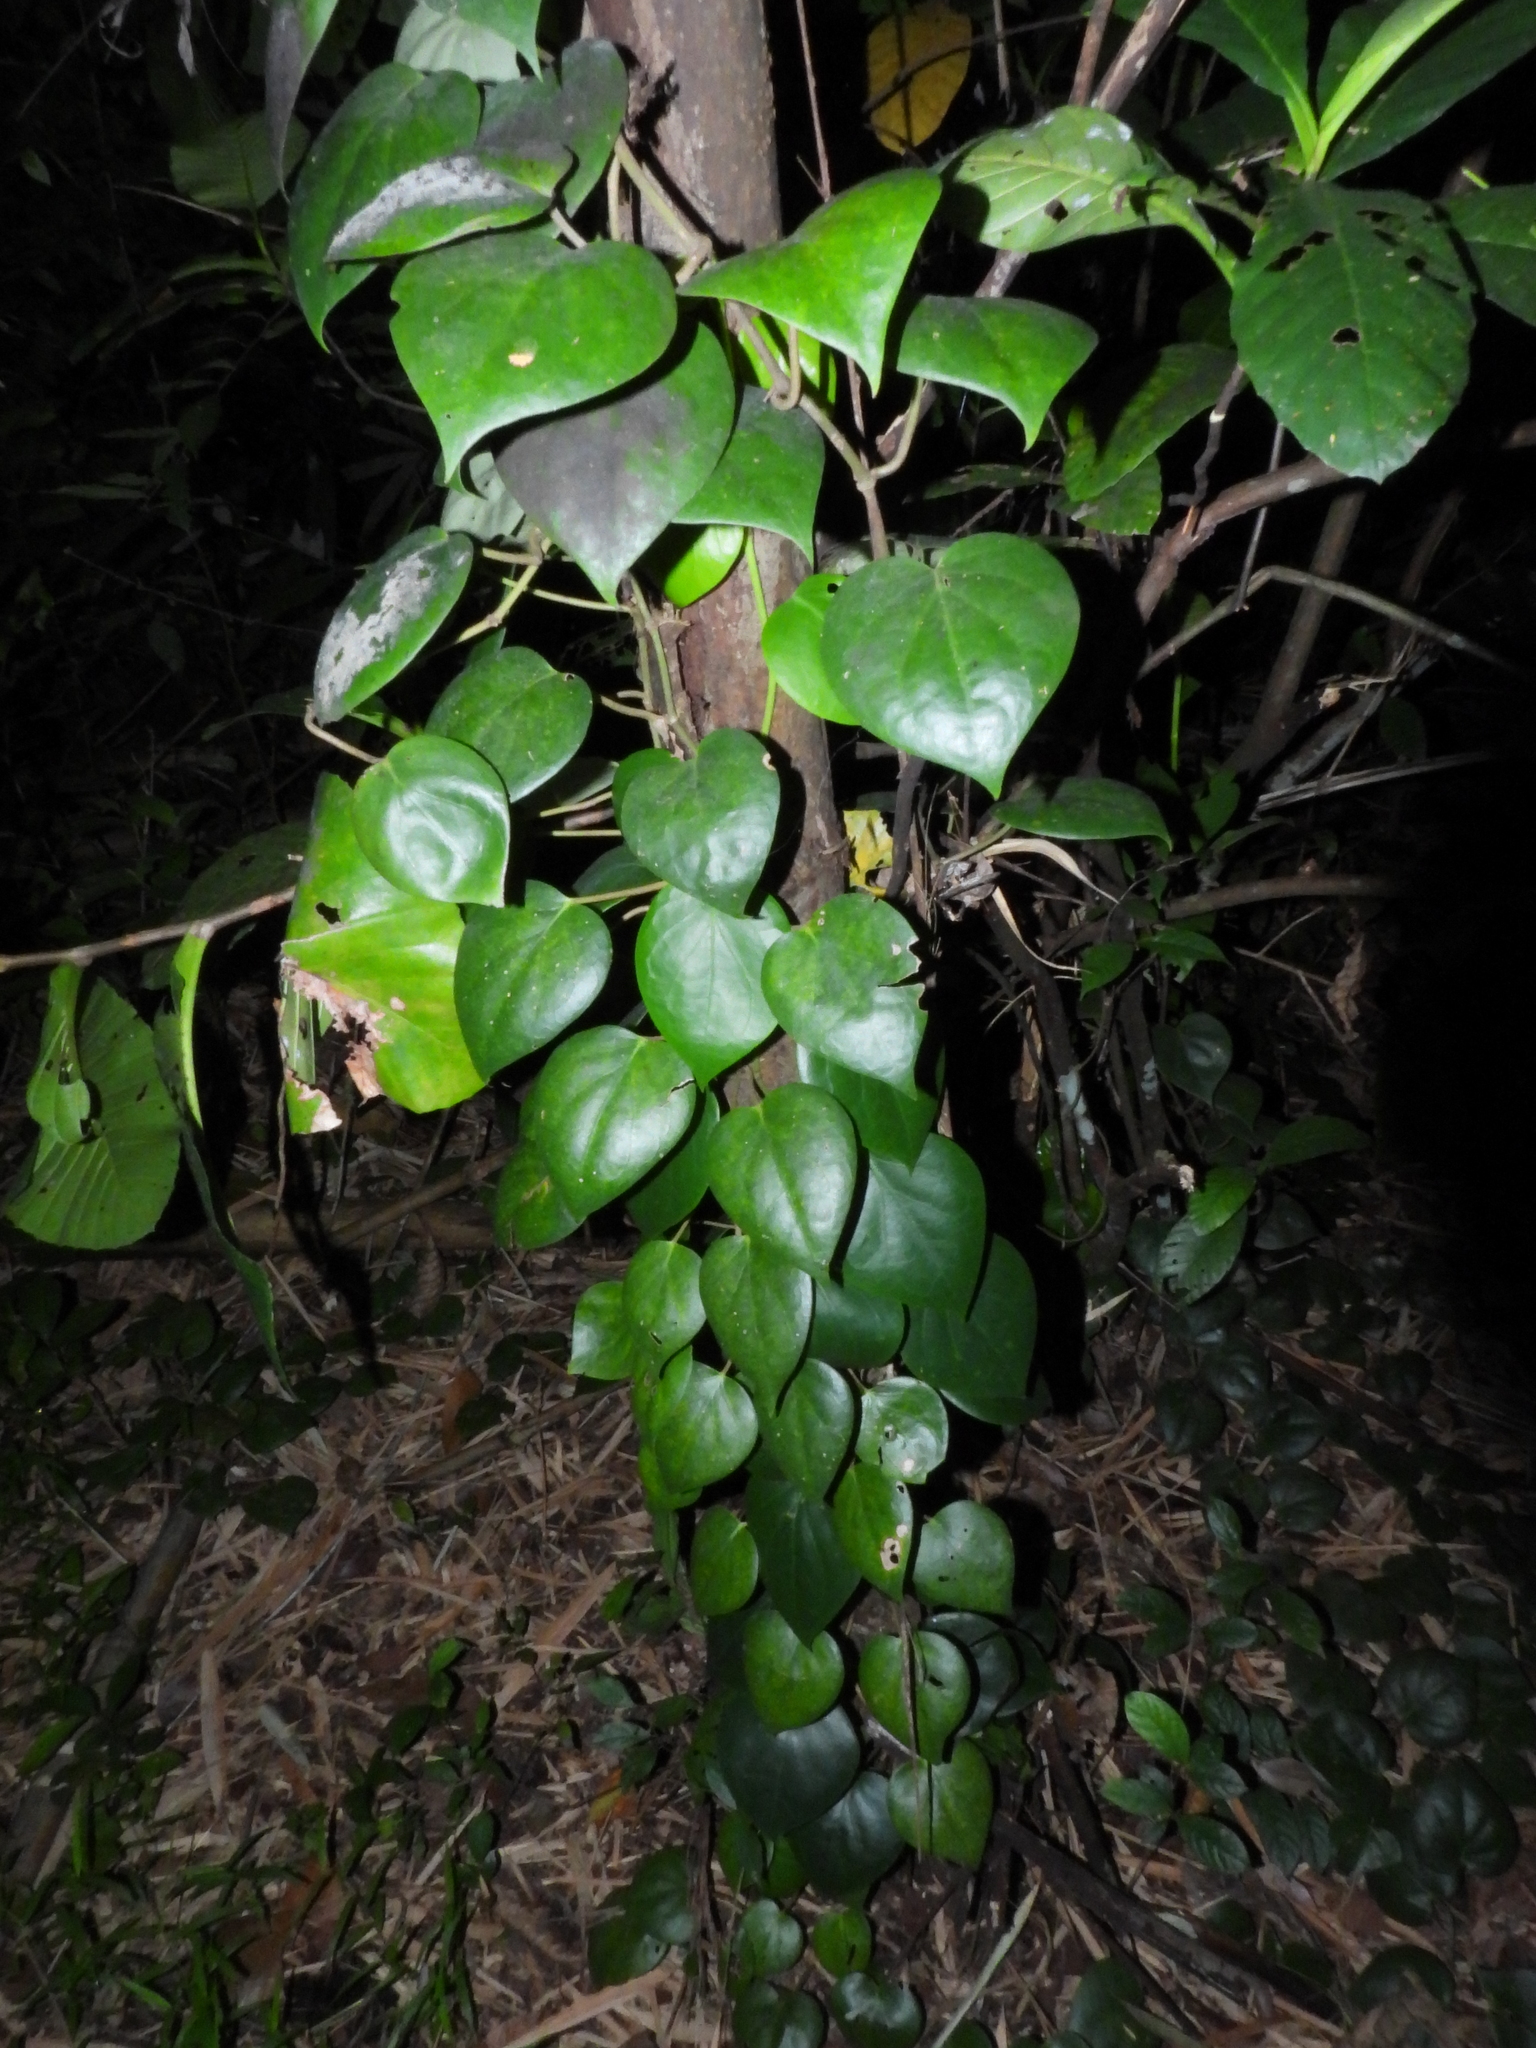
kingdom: Plantae
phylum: Tracheophyta
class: Magnoliopsida
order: Piperales
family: Piperaceae
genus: Piper
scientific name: Piper baccatum
